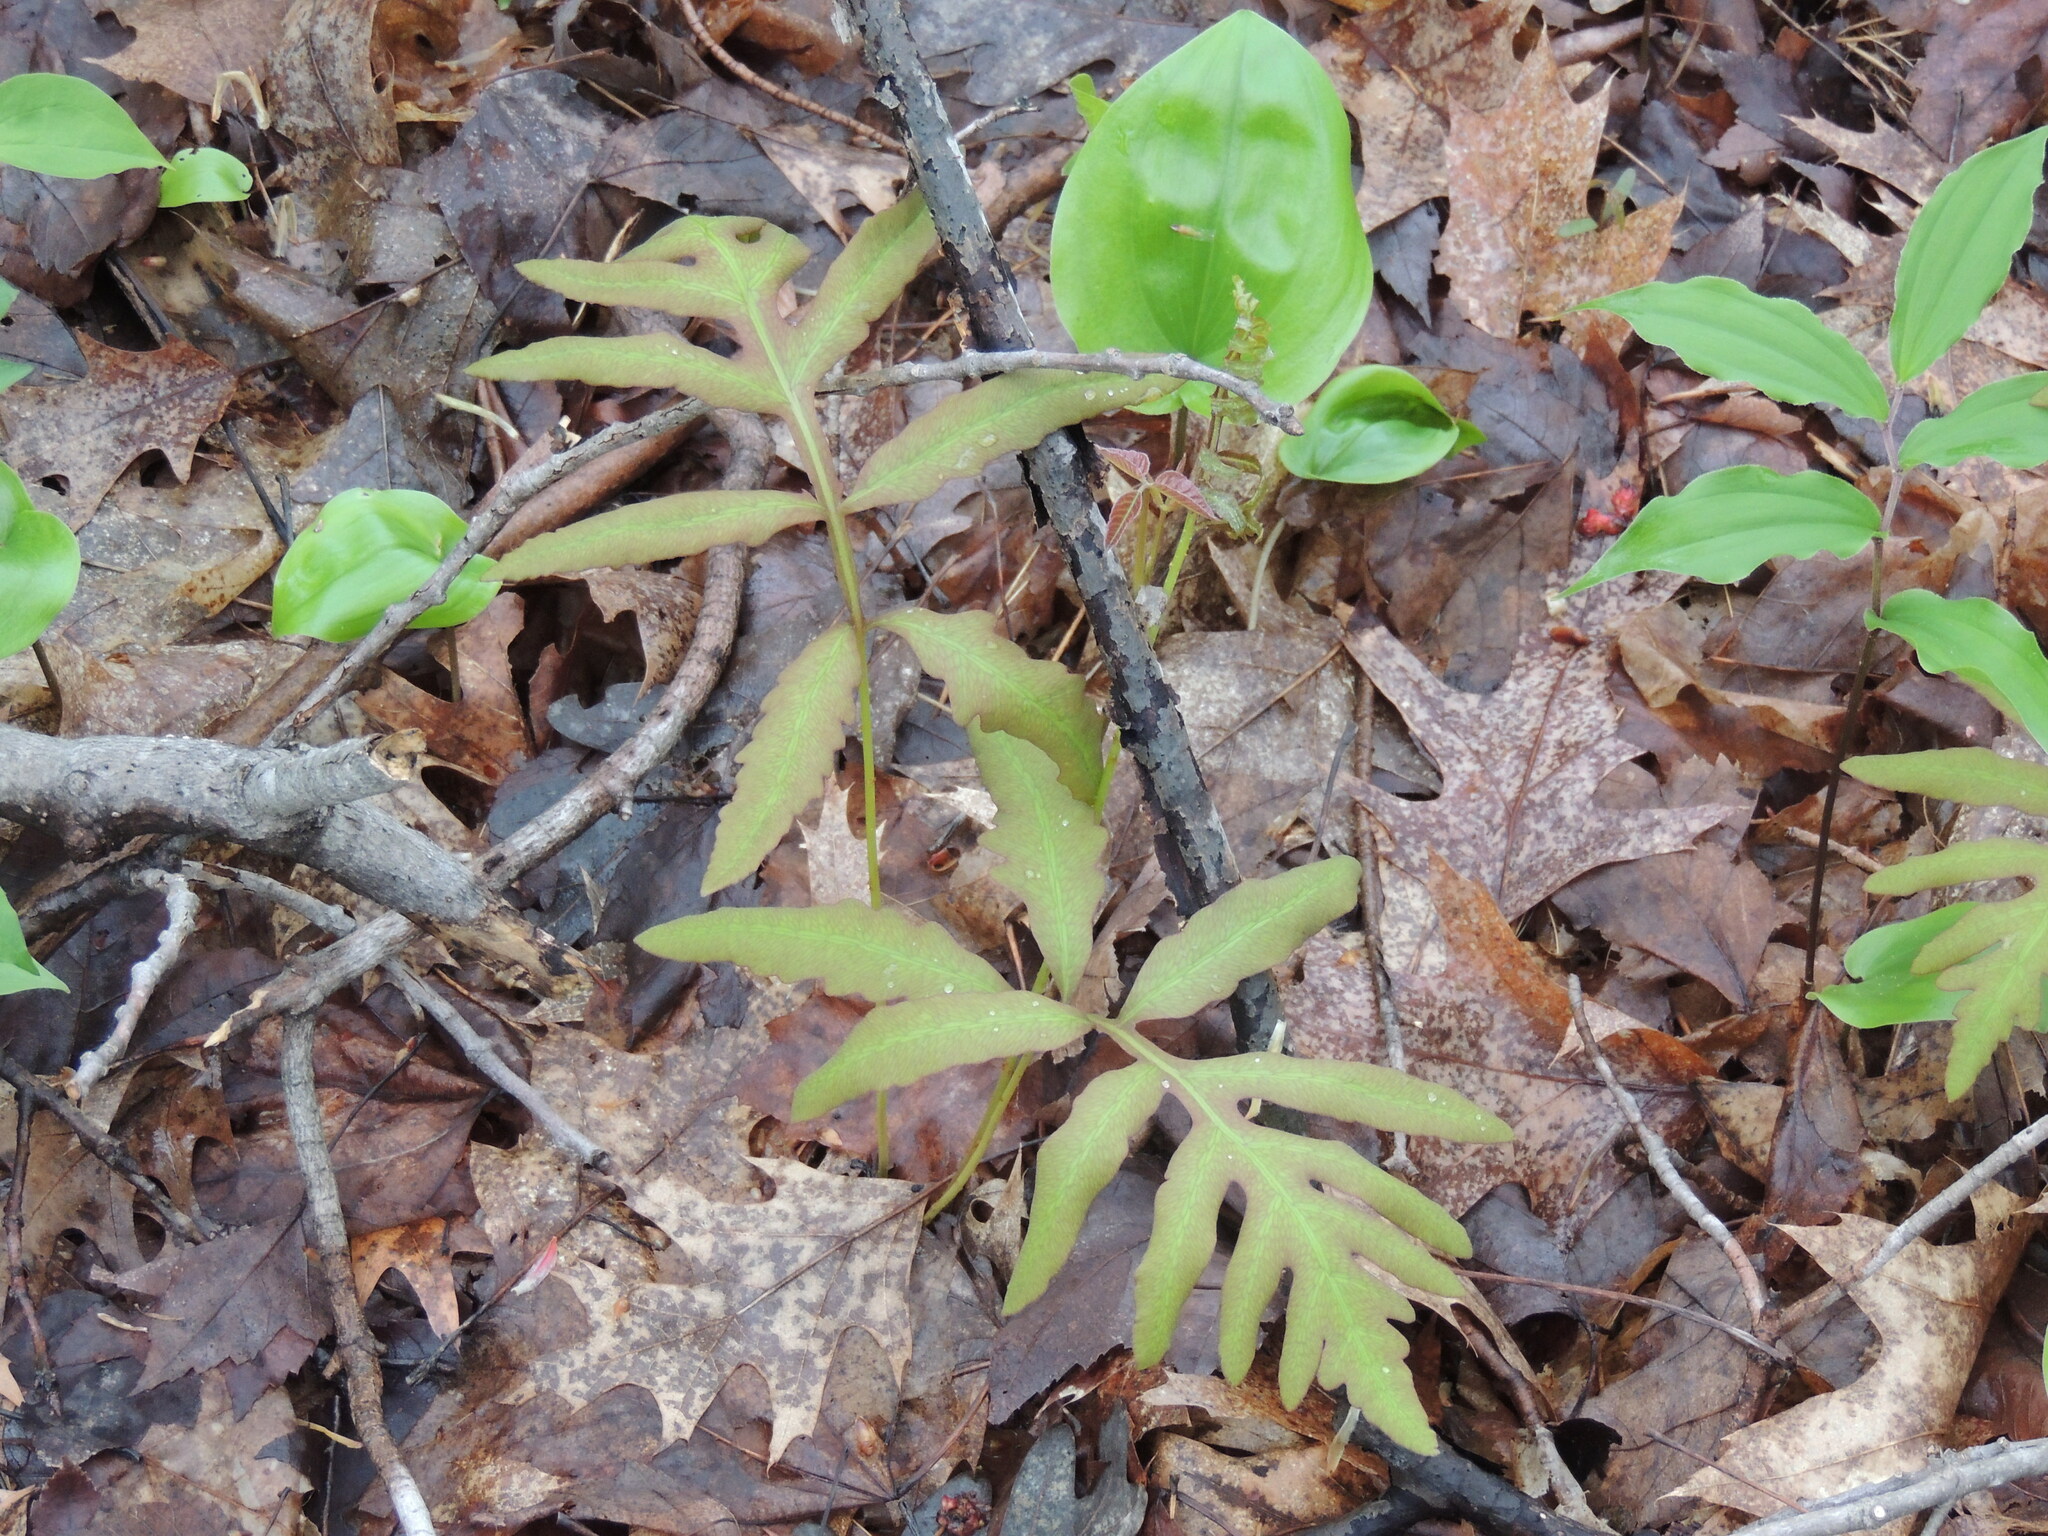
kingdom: Plantae
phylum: Tracheophyta
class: Polypodiopsida
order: Polypodiales
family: Onocleaceae
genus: Onoclea
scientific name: Onoclea sensibilis
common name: Sensitive fern
